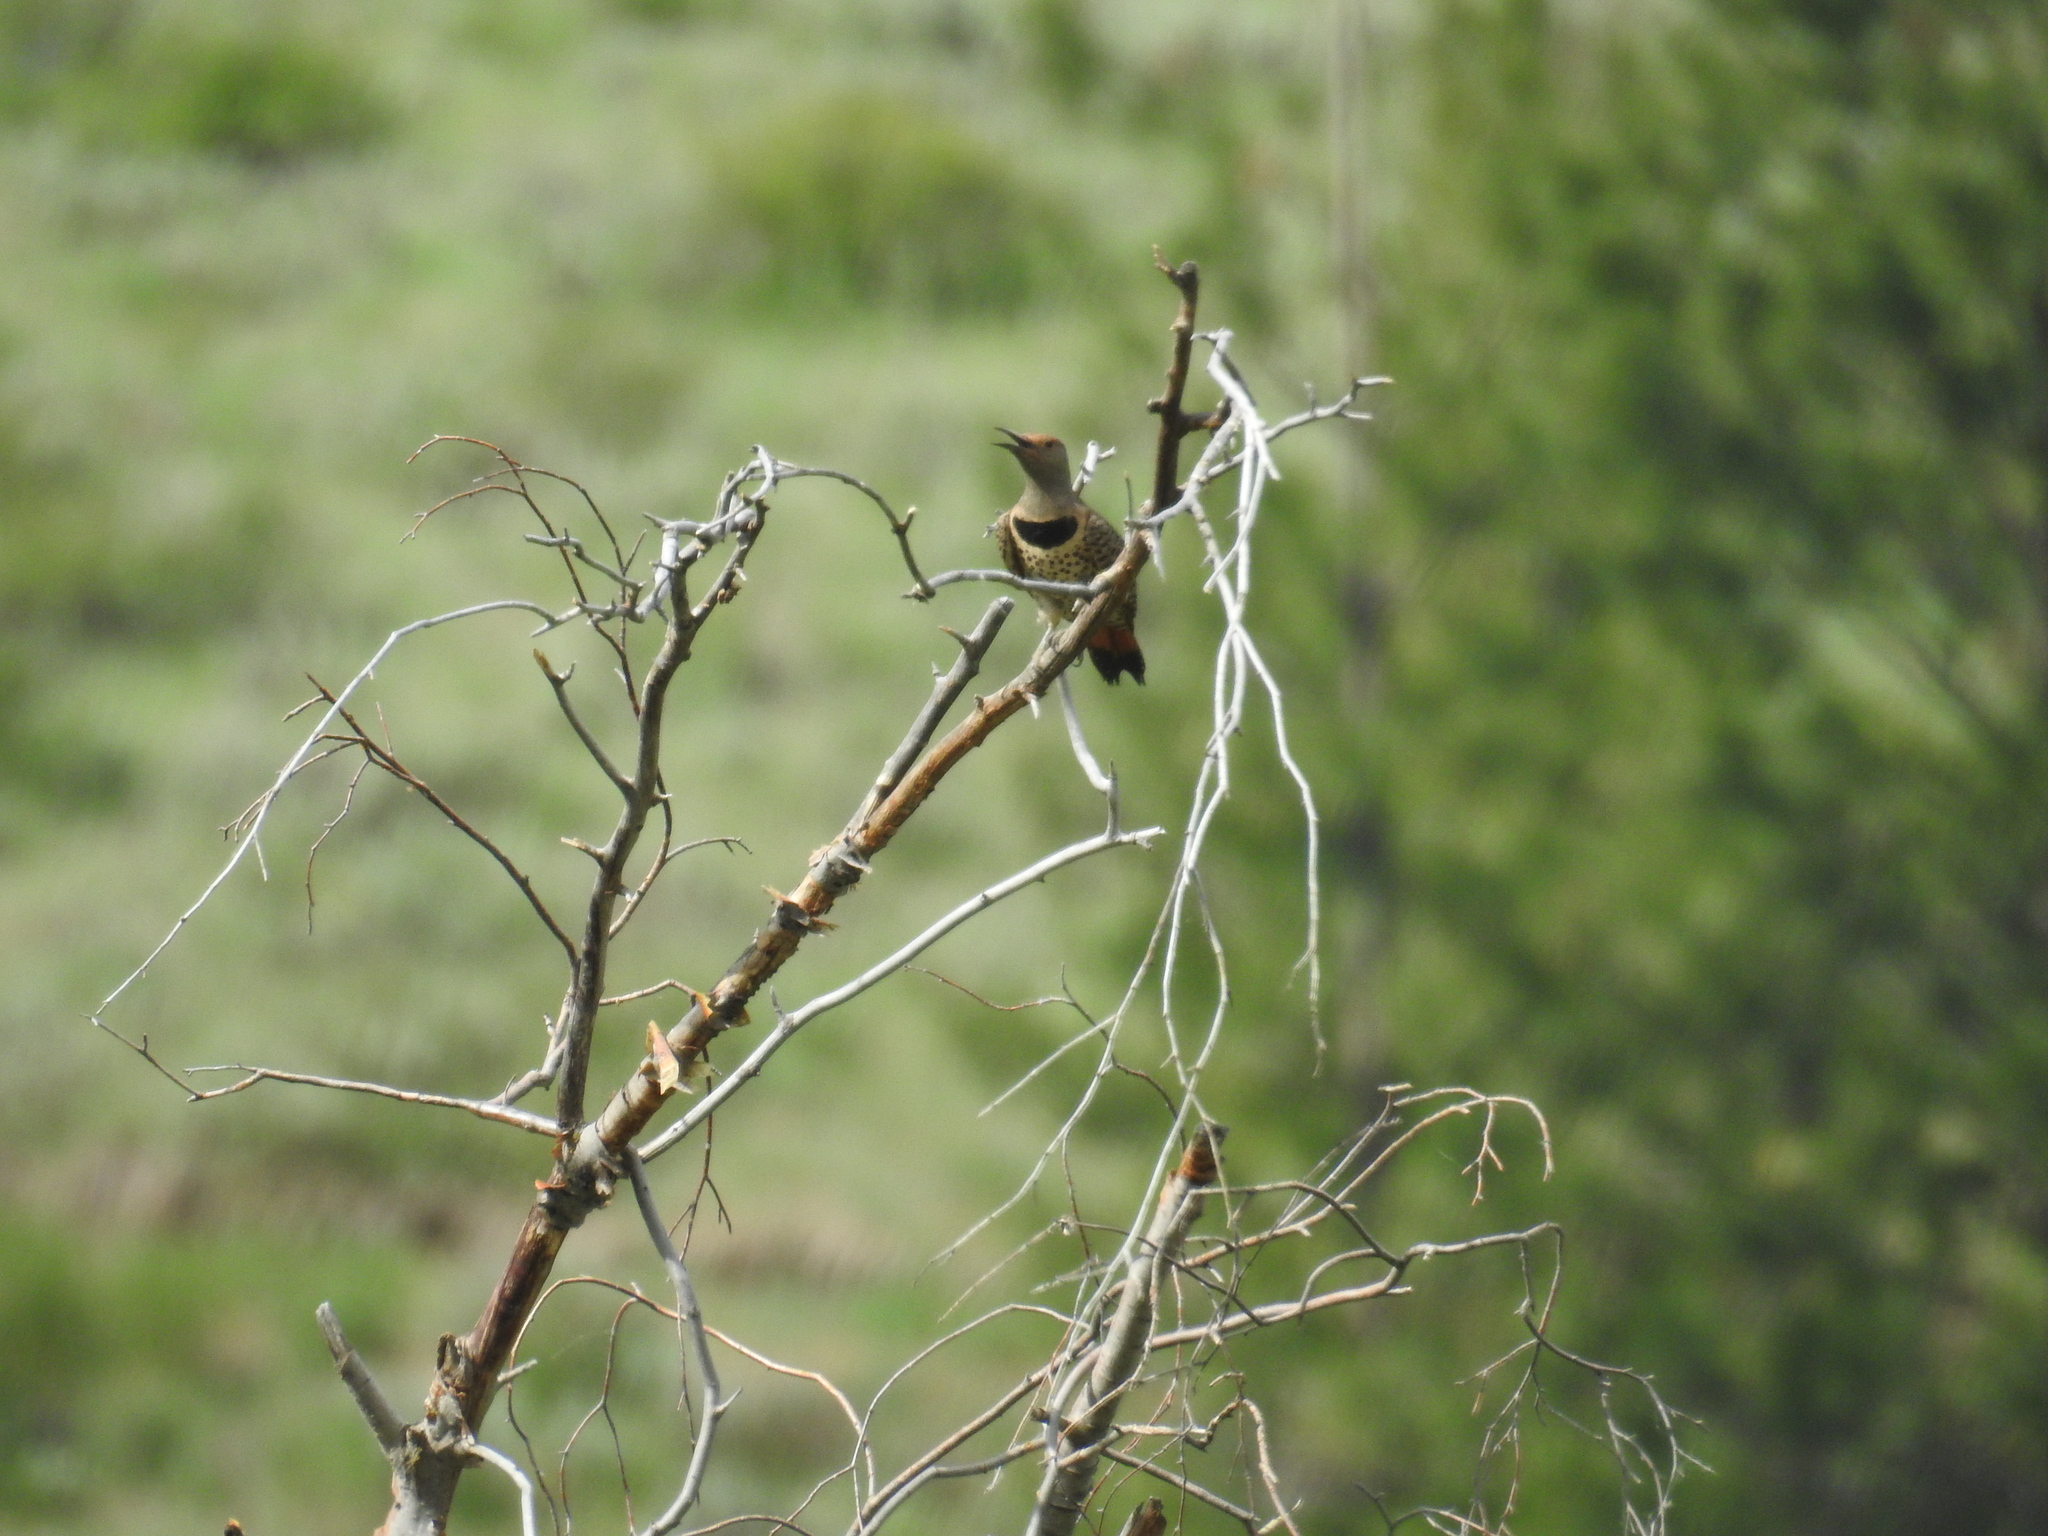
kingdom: Animalia
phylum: Chordata
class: Aves
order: Piciformes
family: Picidae
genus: Colaptes
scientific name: Colaptes auratus
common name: Northern flicker
